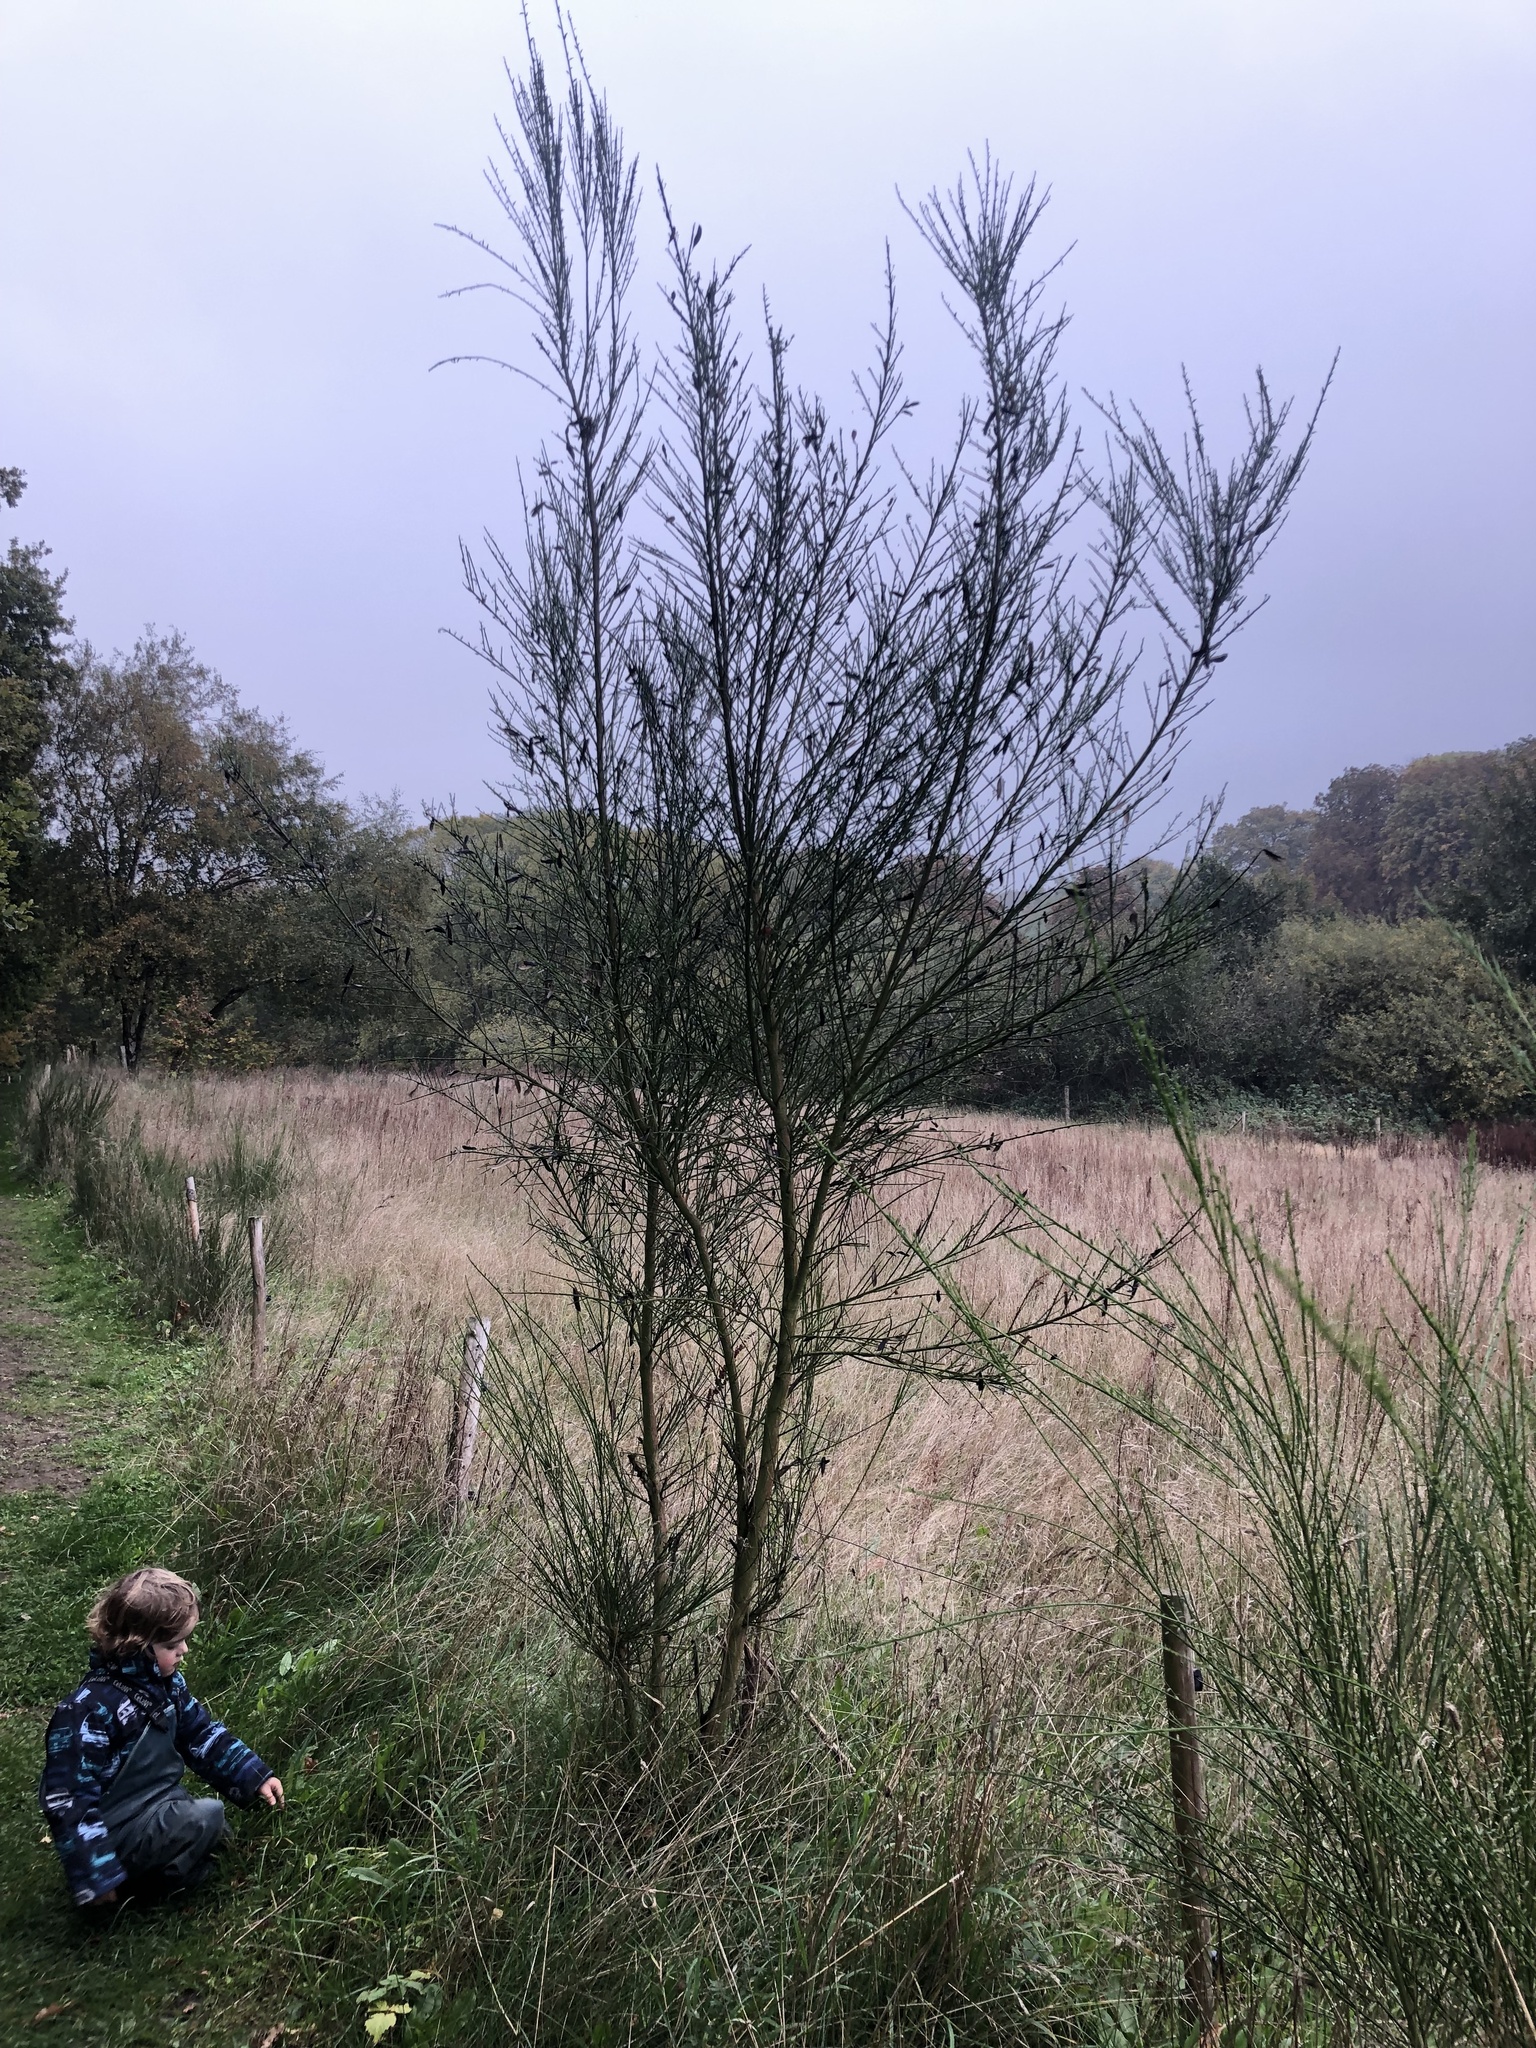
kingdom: Plantae
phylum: Tracheophyta
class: Magnoliopsida
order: Fabales
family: Fabaceae
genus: Cytisus
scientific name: Cytisus scoparius
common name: Scotch broom
